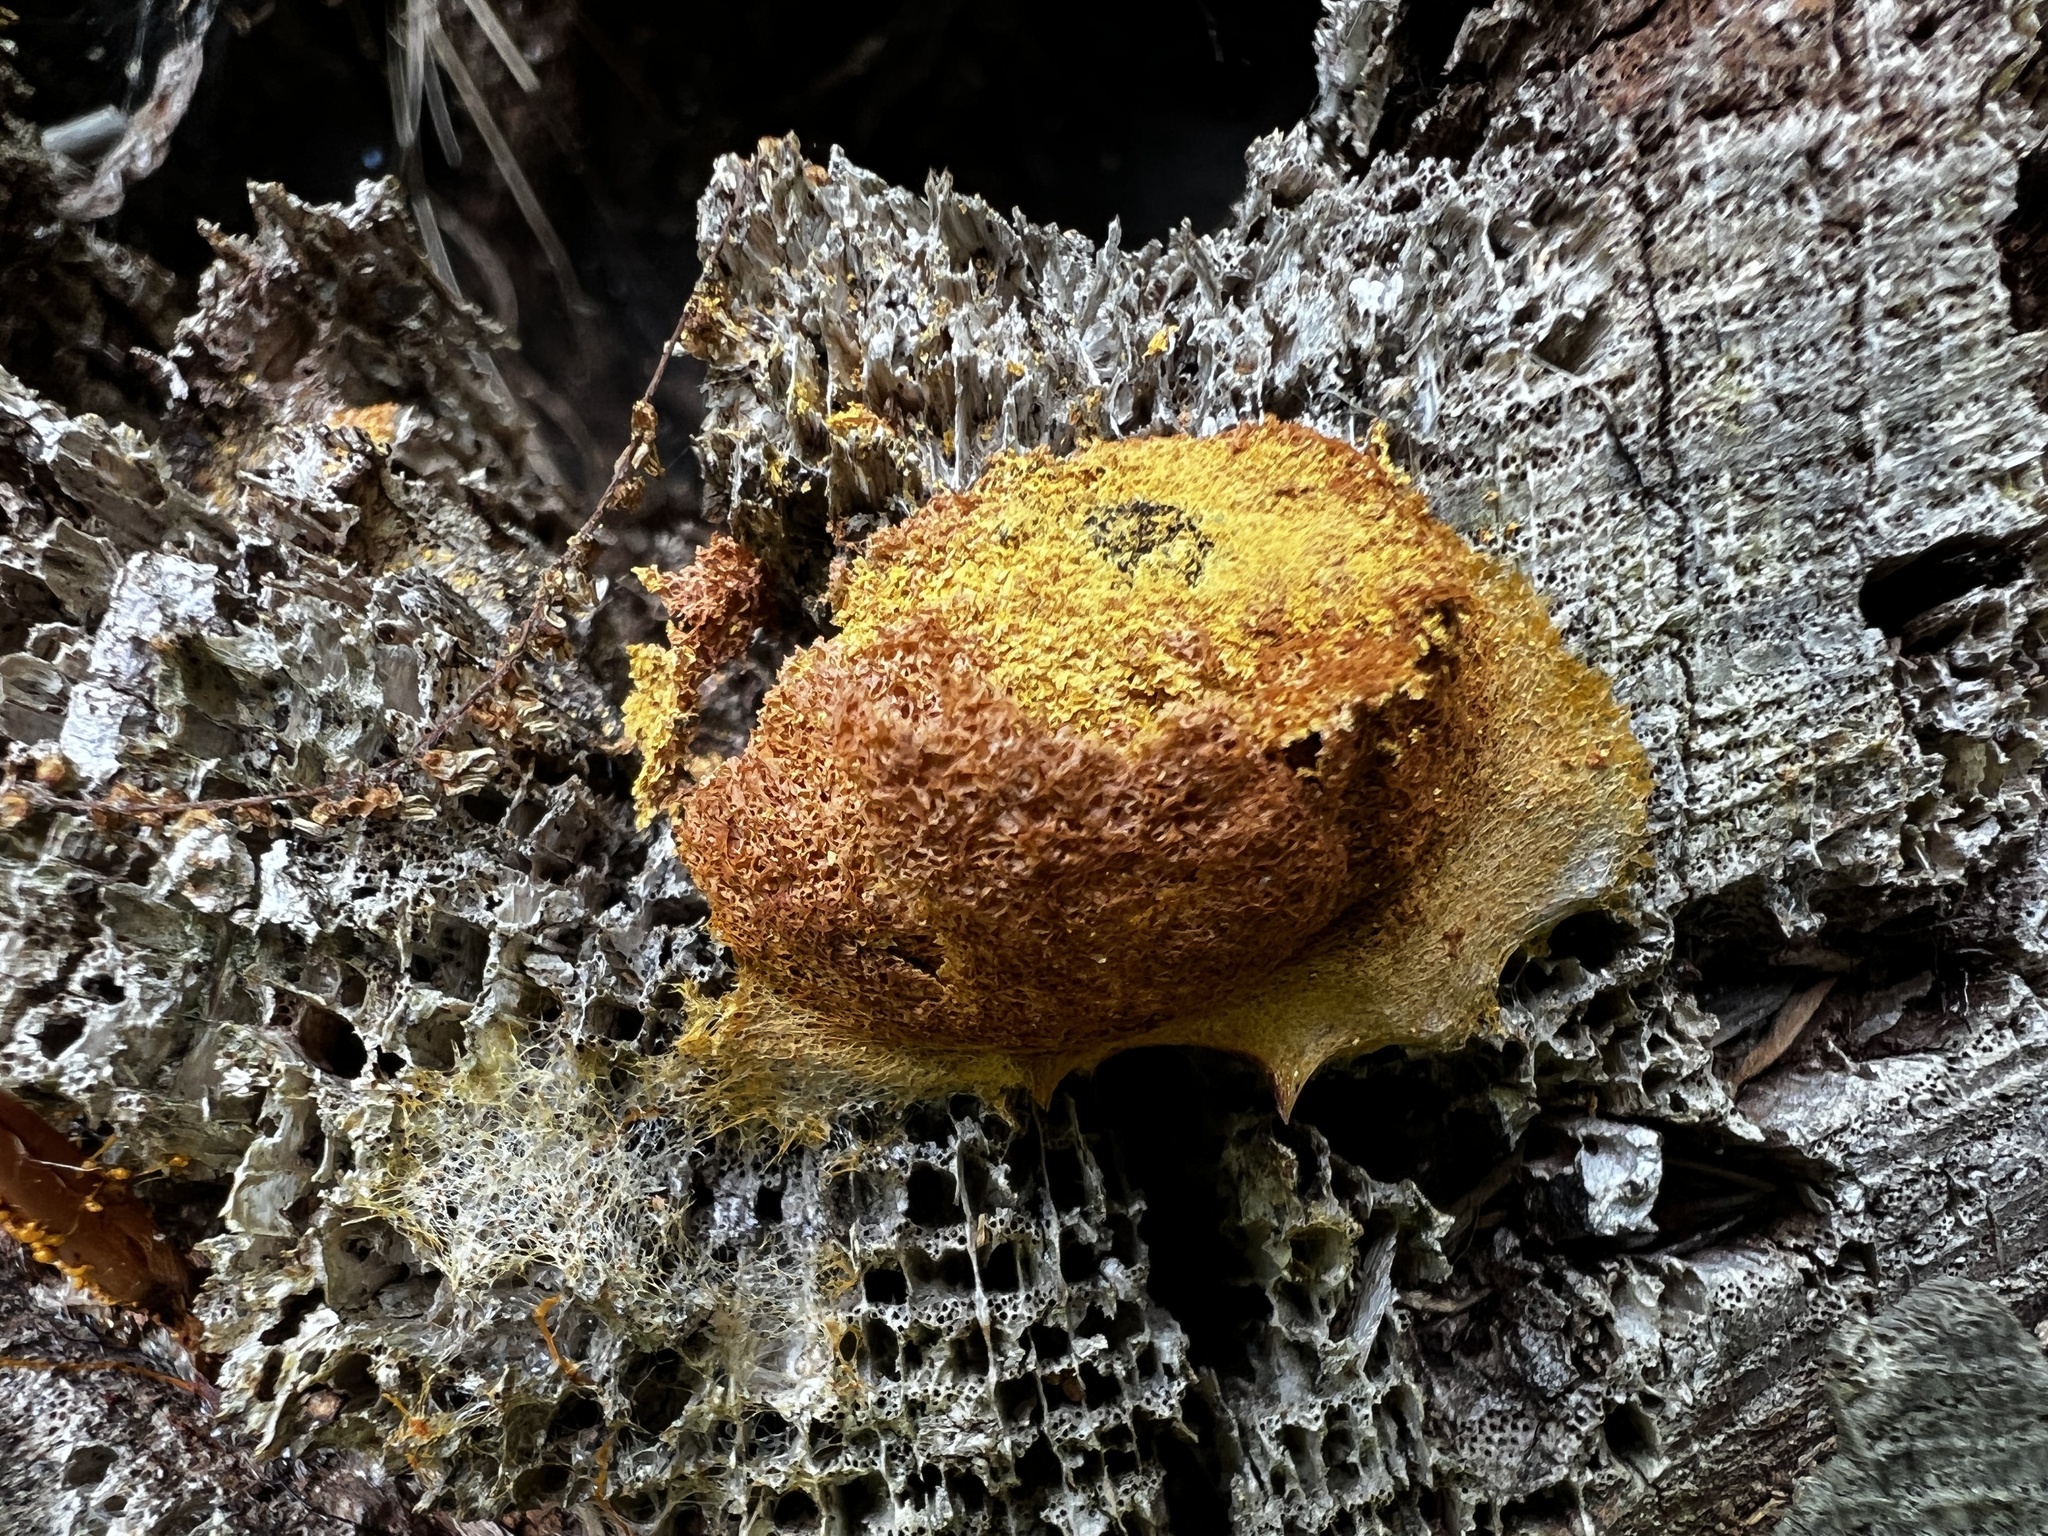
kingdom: Protozoa
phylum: Mycetozoa
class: Myxomycetes
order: Physarales
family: Physaraceae
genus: Fuligo
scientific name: Fuligo septica
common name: Dog vomit slime mold
